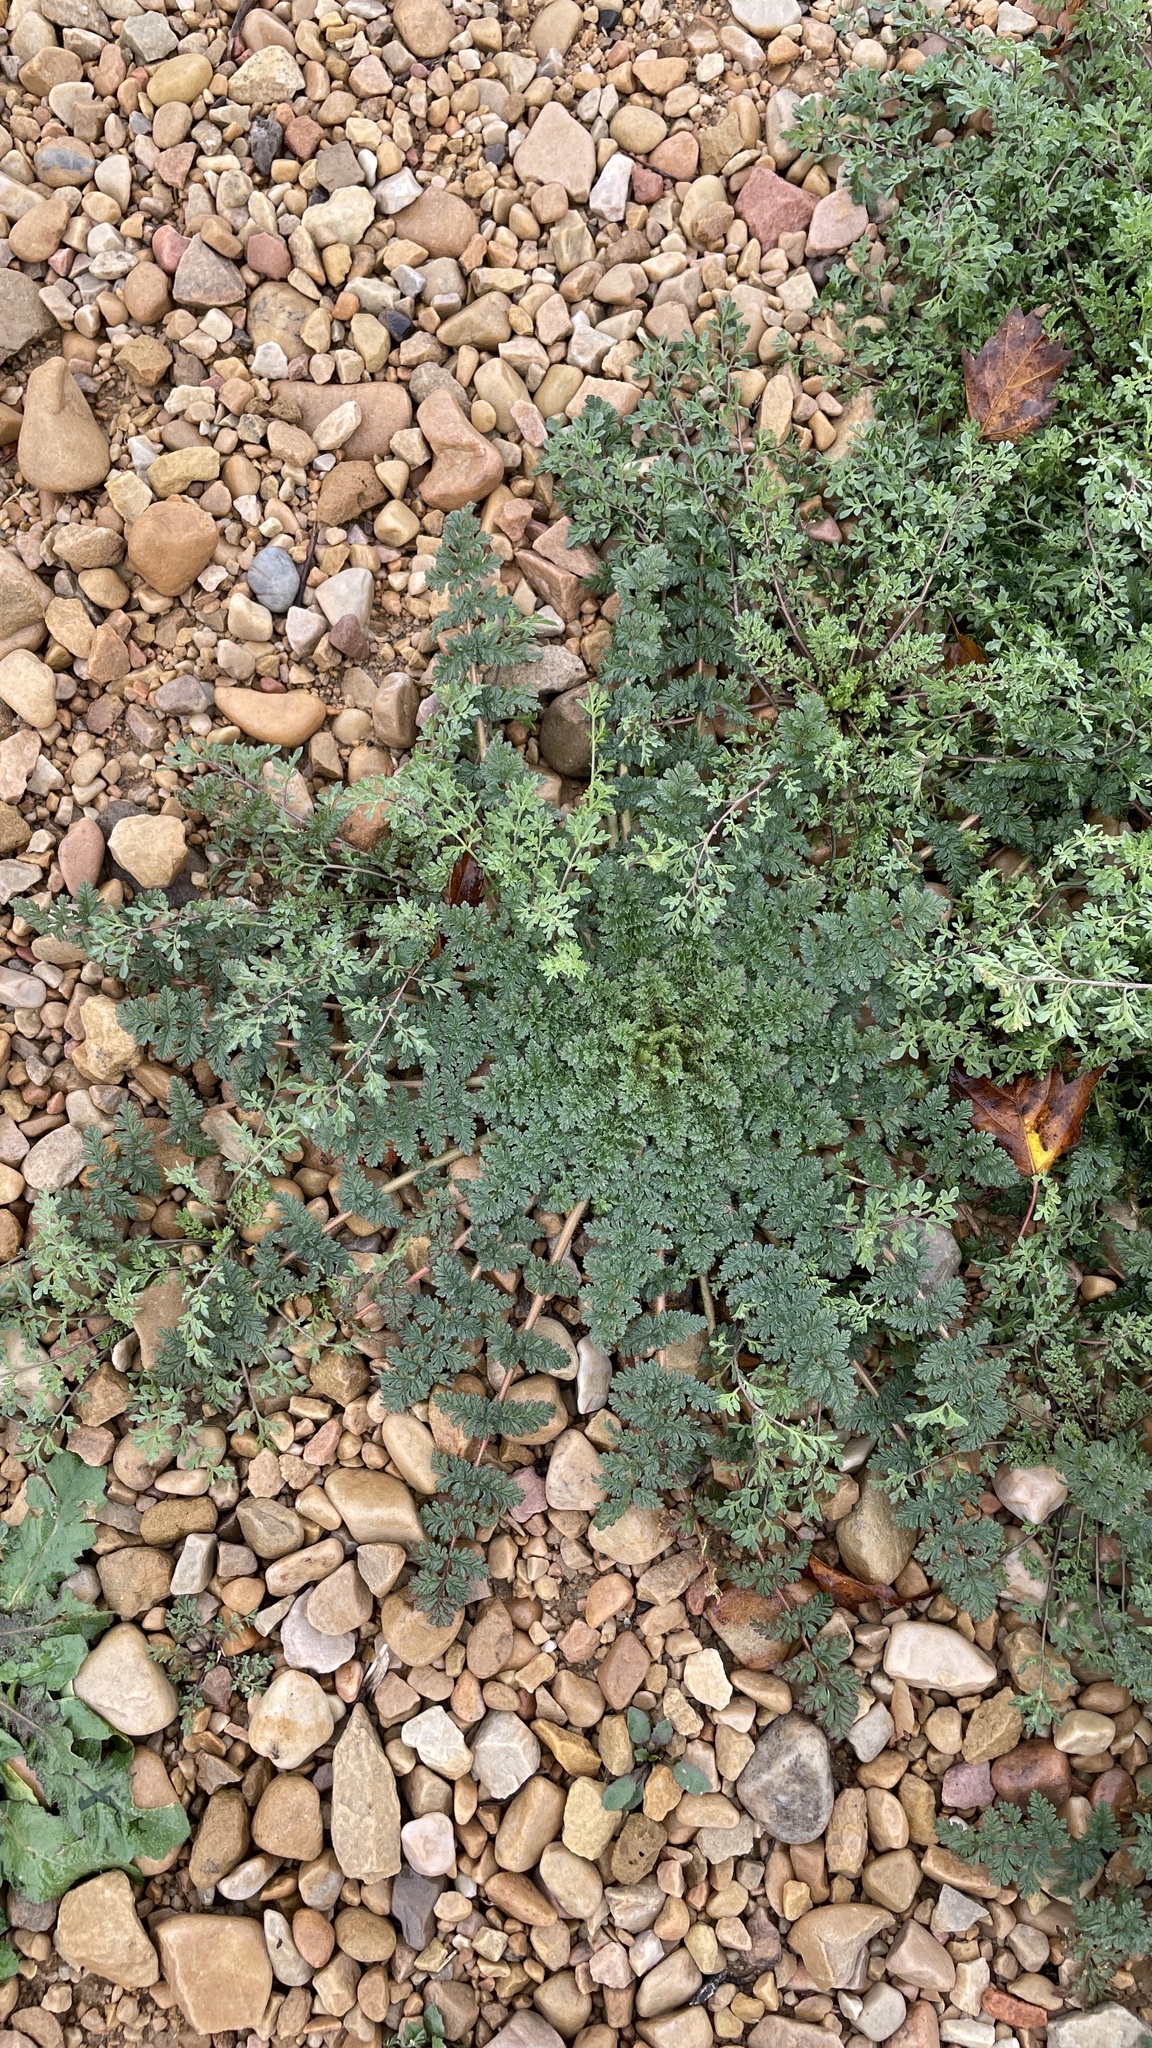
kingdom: Plantae
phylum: Tracheophyta
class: Magnoliopsida
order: Geraniales
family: Geraniaceae
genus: Erodium
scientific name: Erodium cicutarium
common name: Common stork's-bill
